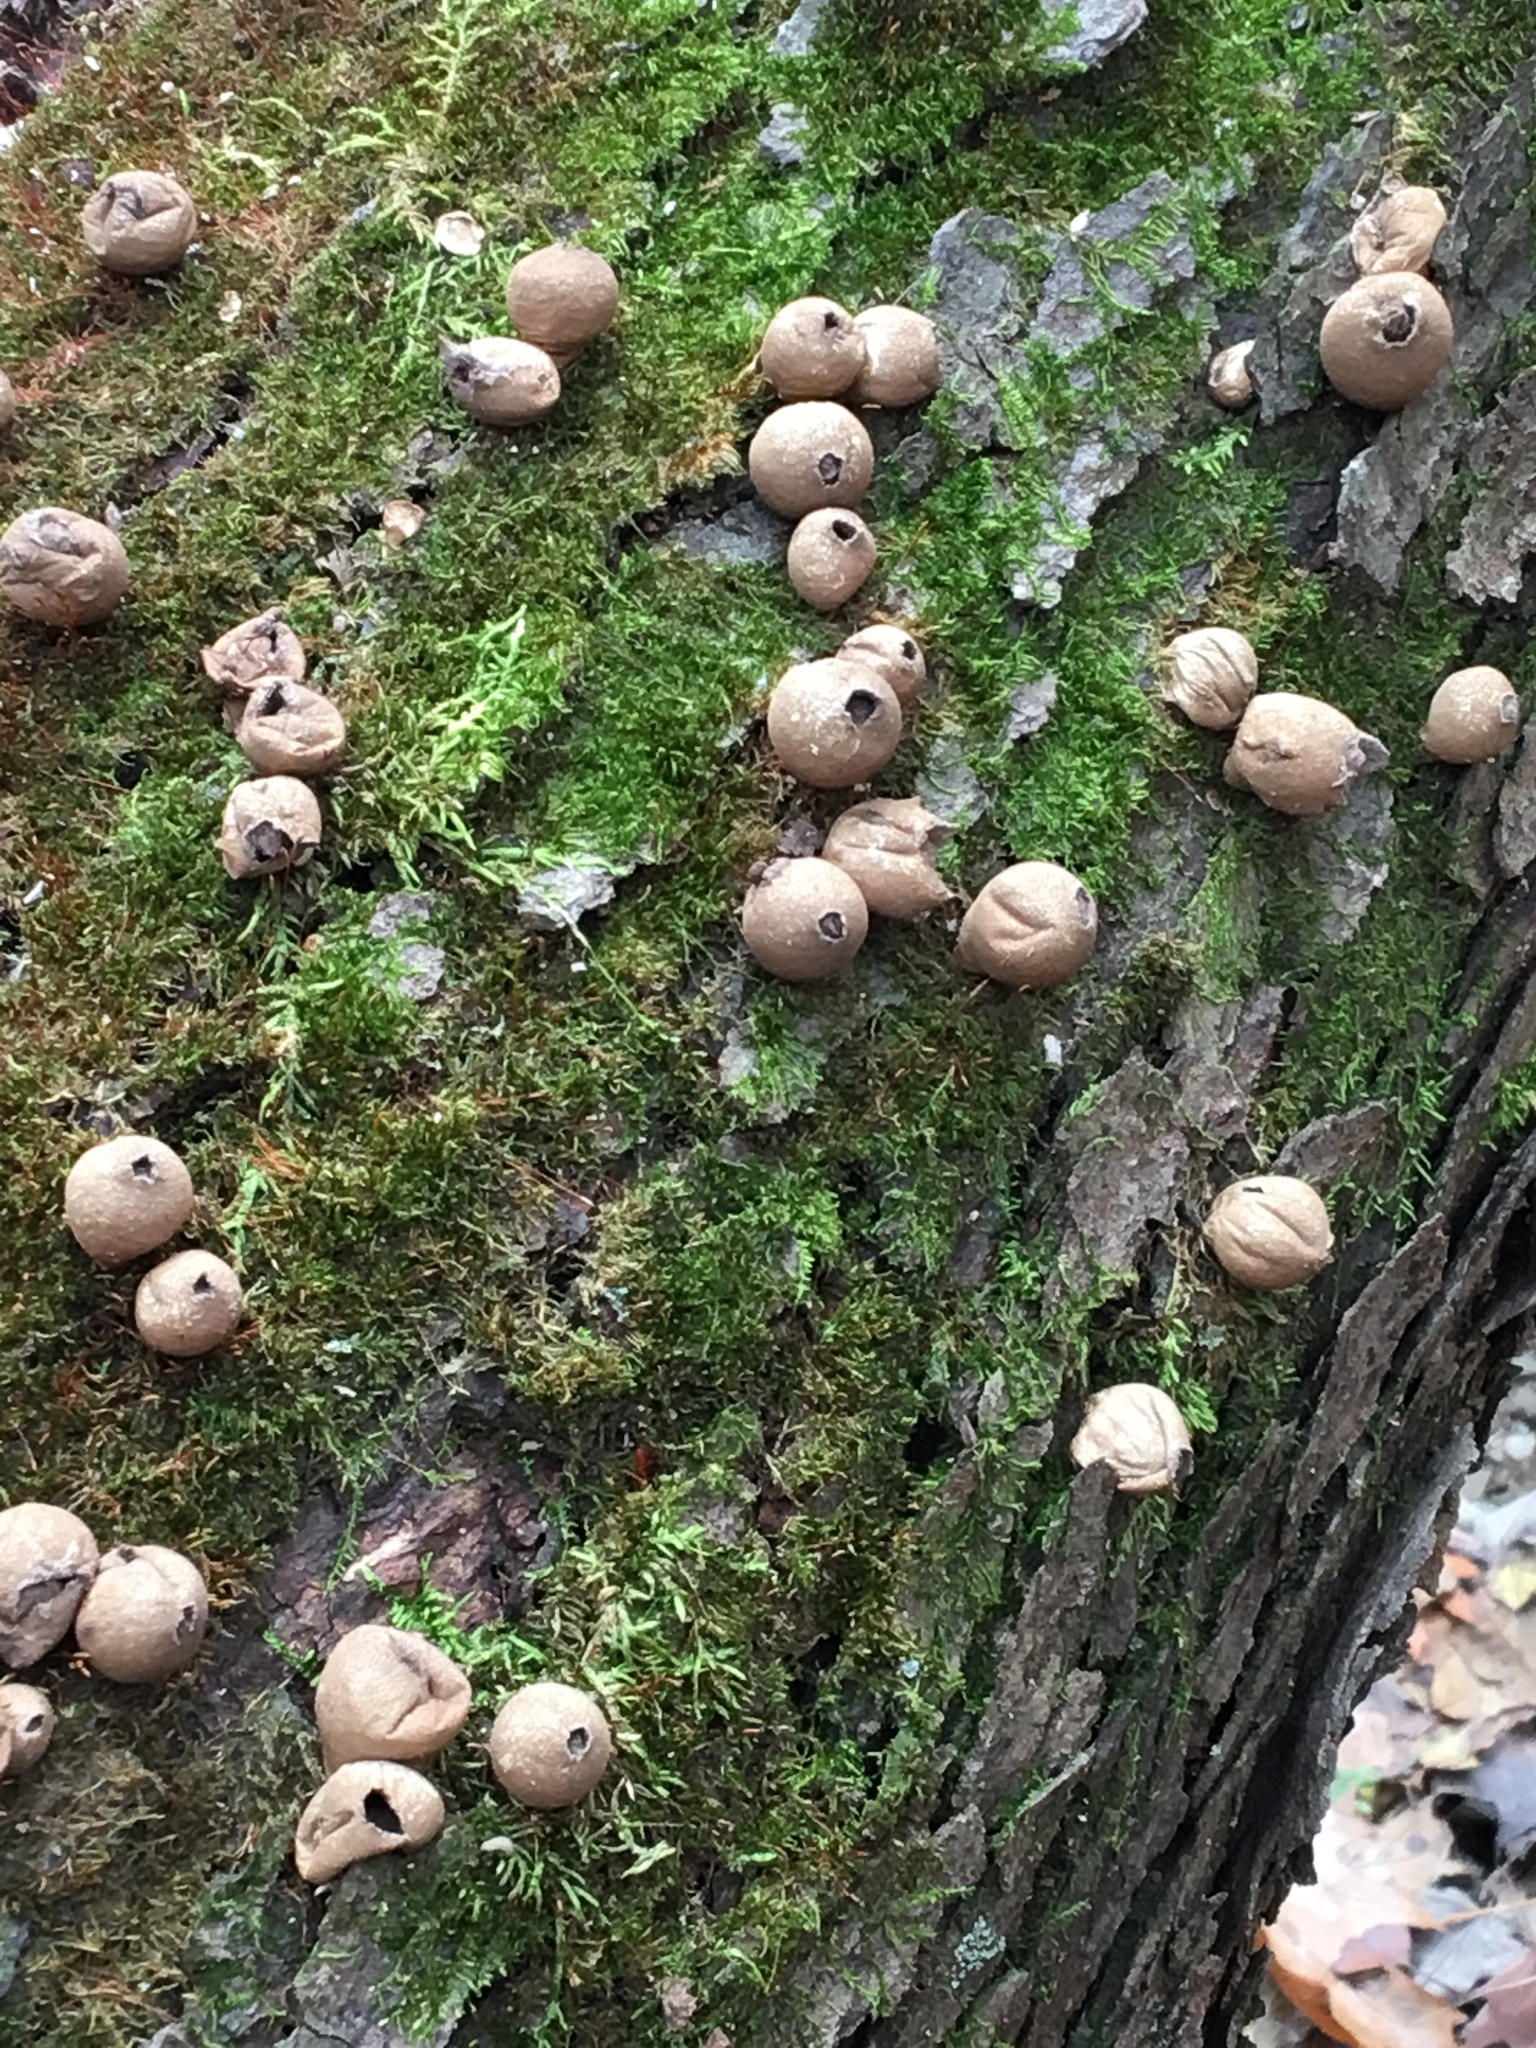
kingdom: Fungi
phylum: Basidiomycota
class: Agaricomycetes
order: Agaricales
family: Lycoperdaceae
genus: Apioperdon
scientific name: Apioperdon pyriforme
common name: Pear-shaped puffball
